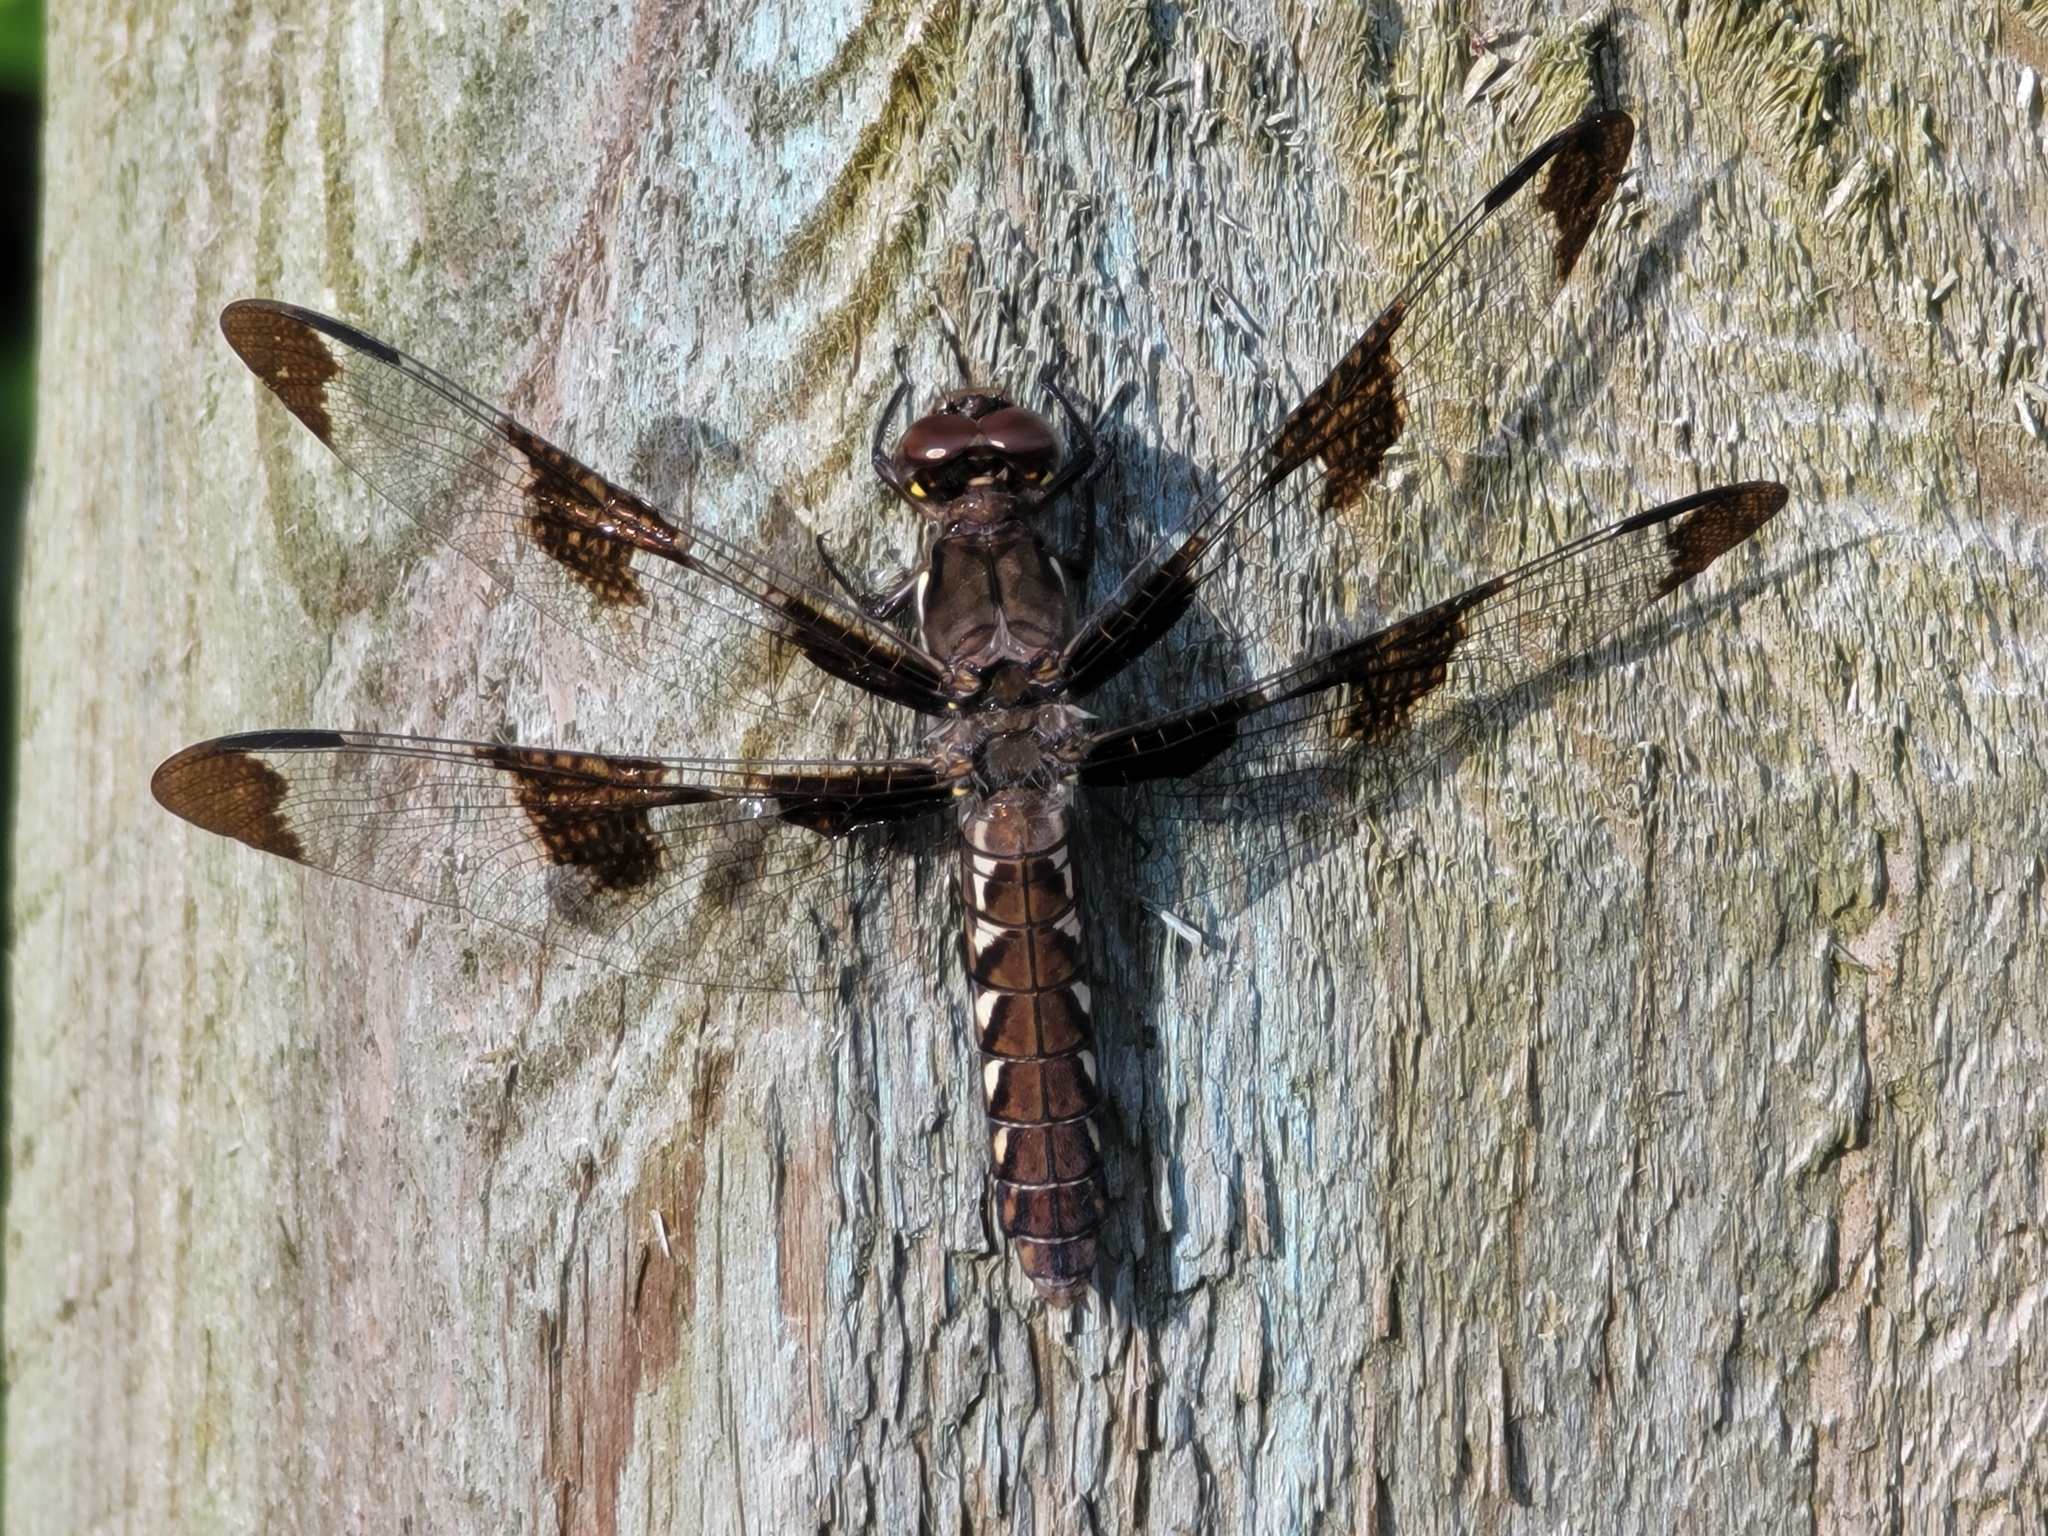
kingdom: Animalia
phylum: Arthropoda
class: Insecta
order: Odonata
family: Libellulidae
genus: Plathemis
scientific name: Plathemis lydia
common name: Common whitetail
